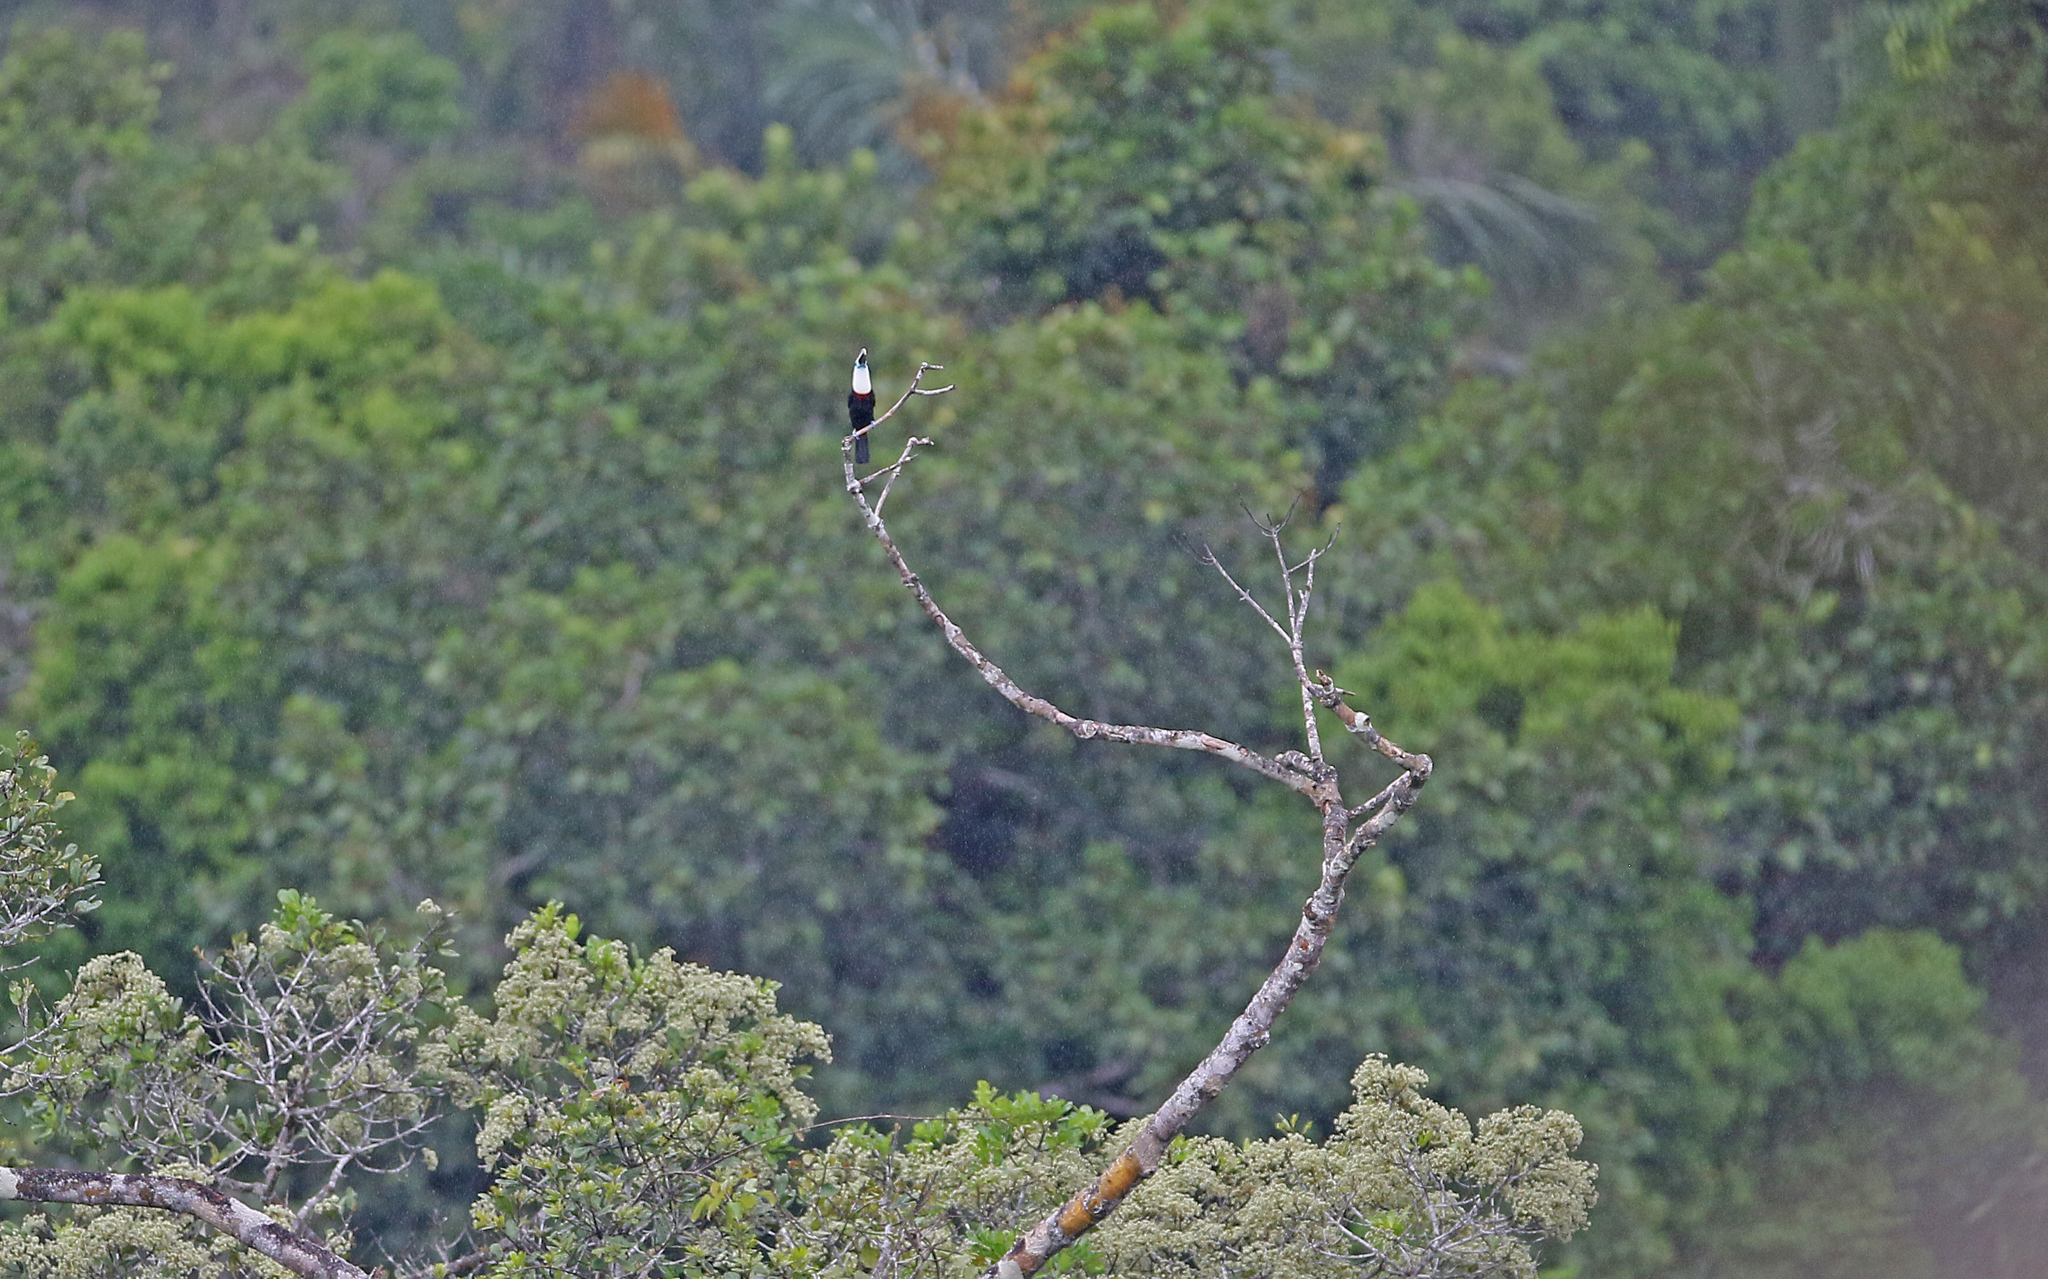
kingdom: Animalia
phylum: Chordata
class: Aves
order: Piciformes
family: Ramphastidae
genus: Ramphastos
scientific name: Ramphastos tucanus
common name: White-throated toucan
